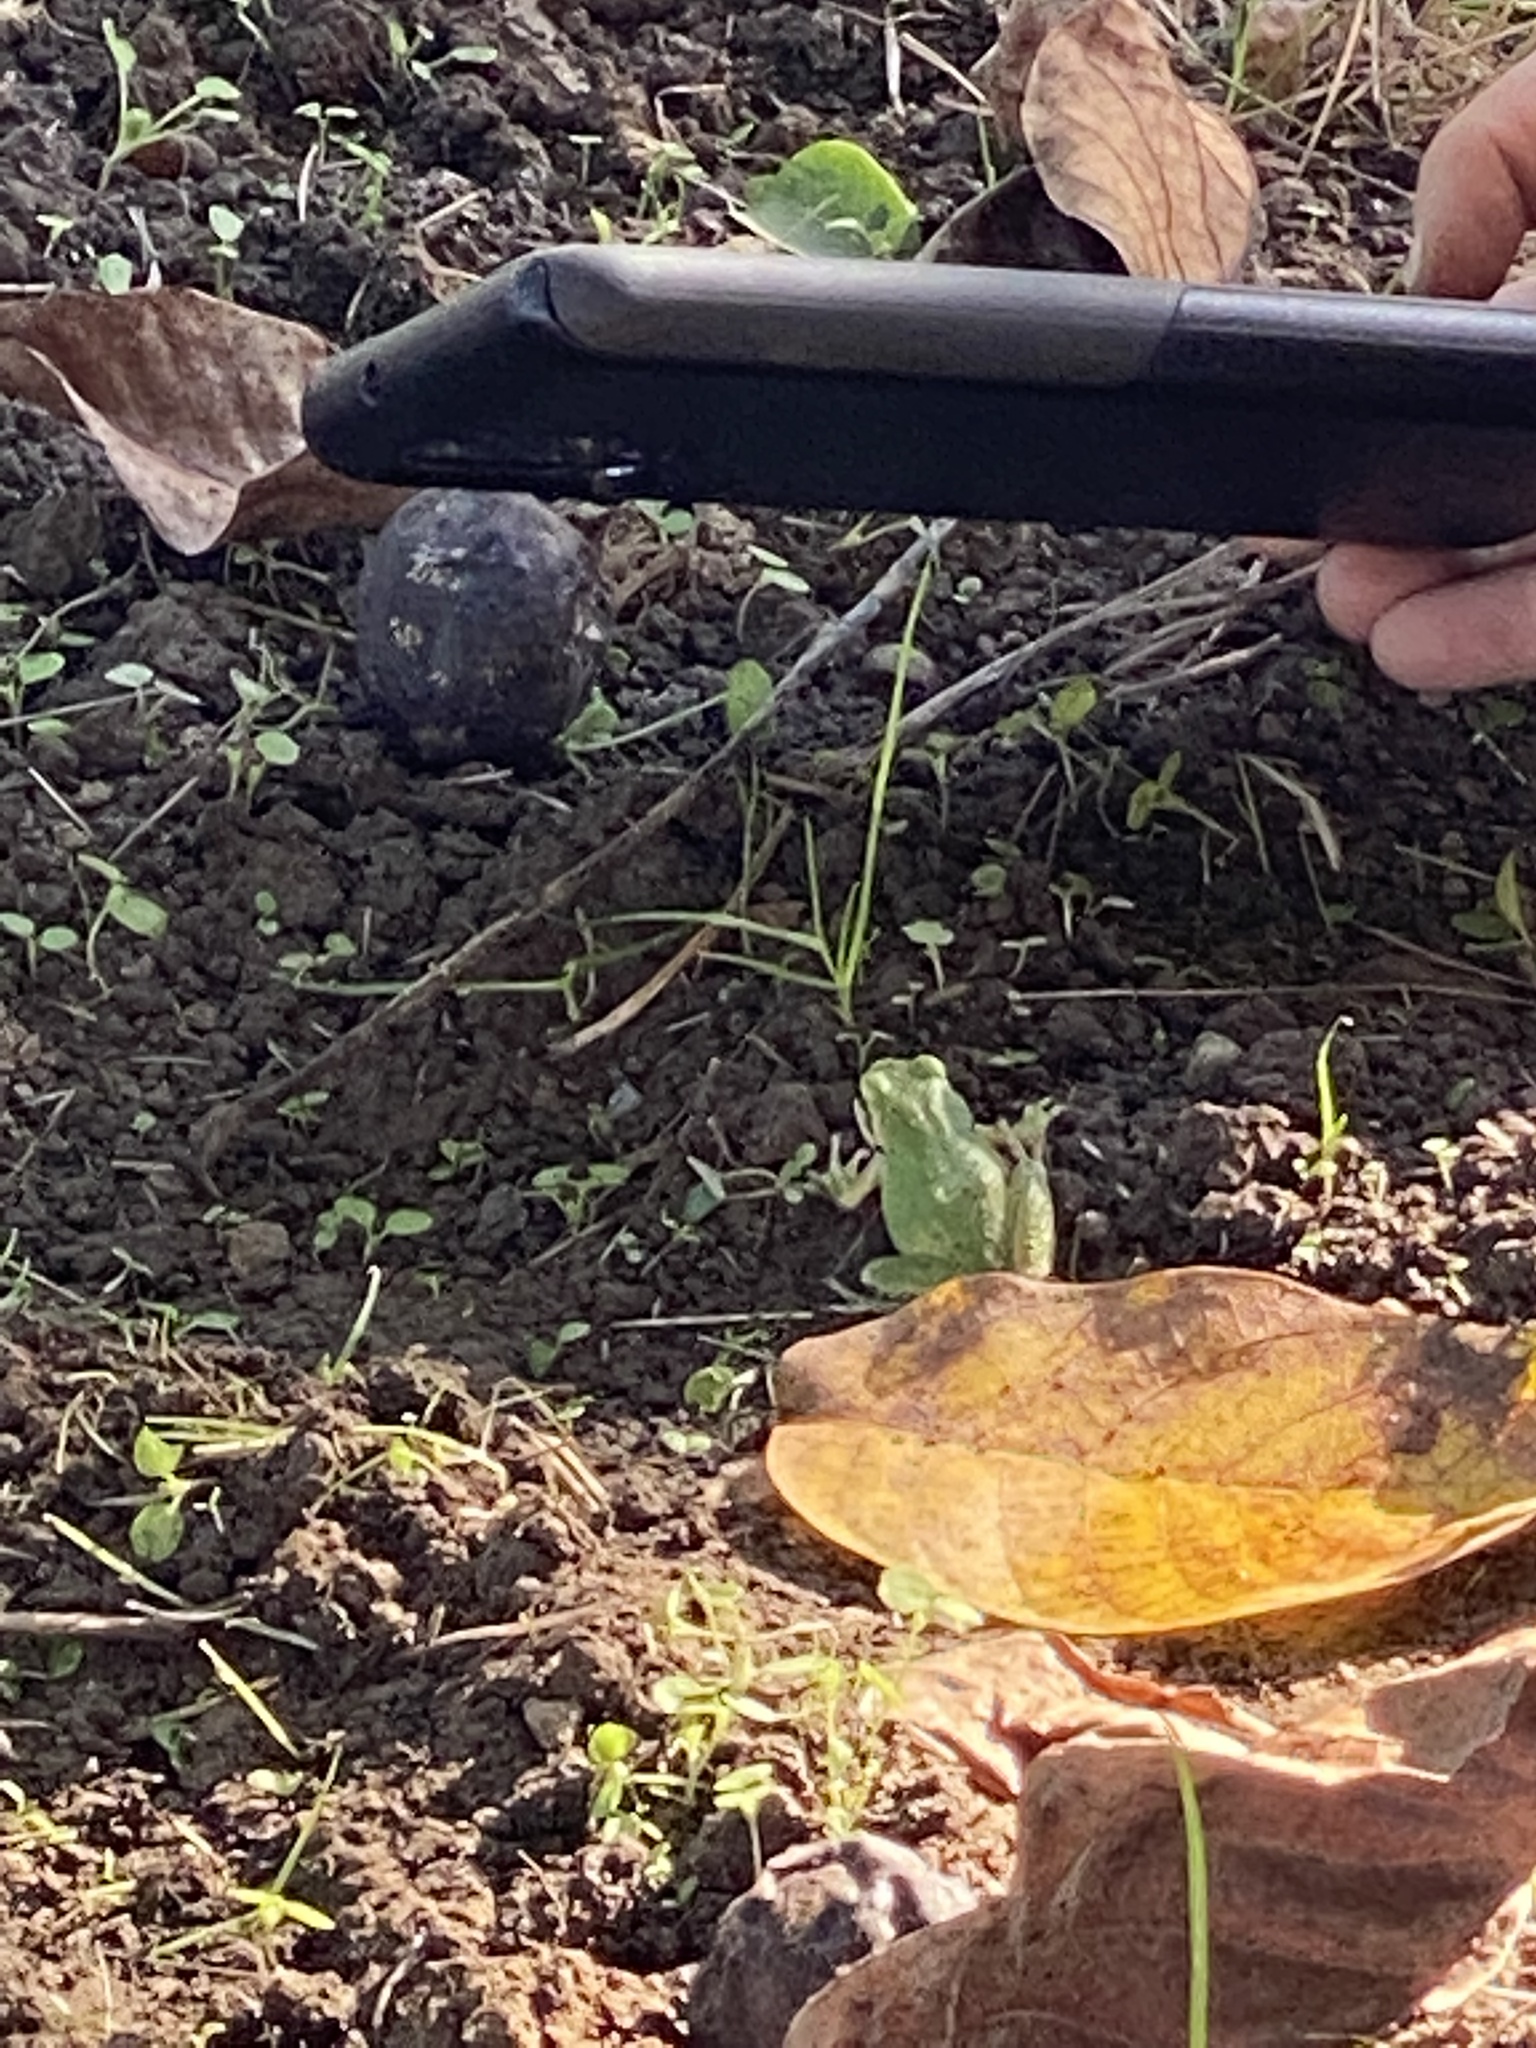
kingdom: Animalia
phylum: Chordata
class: Amphibia
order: Anura
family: Hylidae
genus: Pseudacris
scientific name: Pseudacris regilla
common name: Pacific chorus frog
